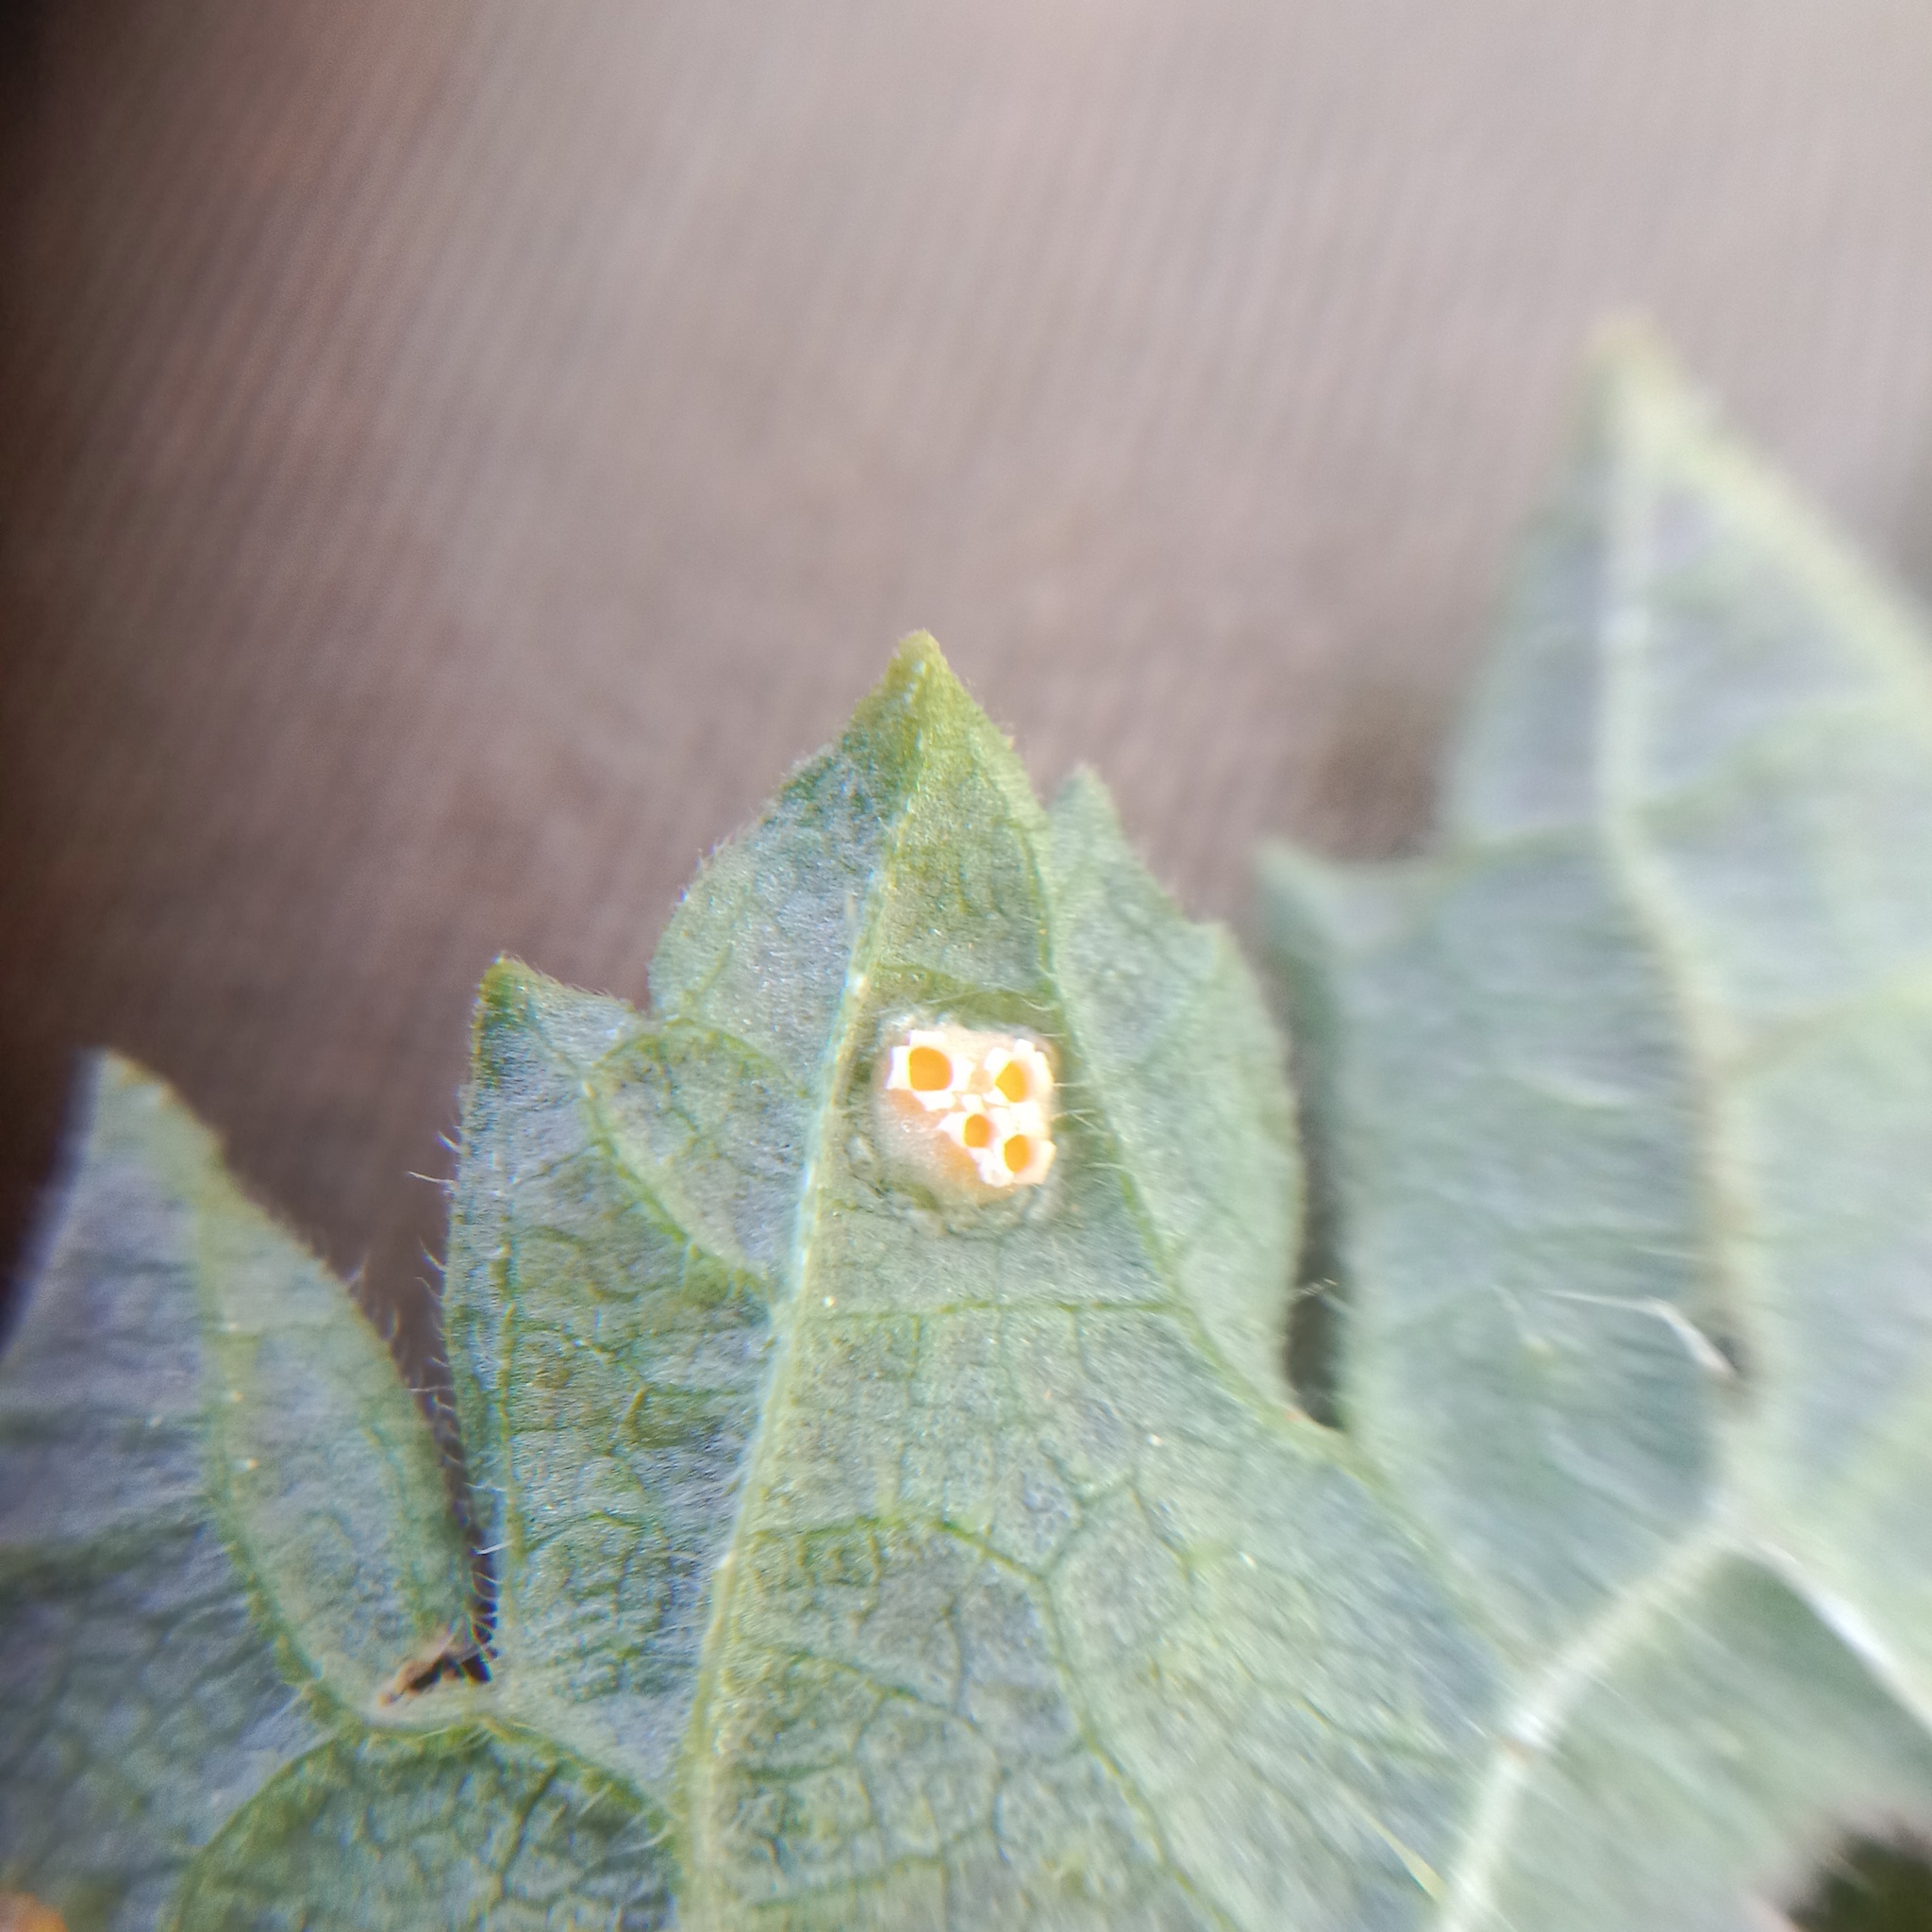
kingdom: Fungi
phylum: Basidiomycota
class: Pucciniomycetes
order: Pucciniales
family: Pucciniaceae
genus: Puccinia
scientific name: Puccinia urticata
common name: Nettle clustercup rust fungus
